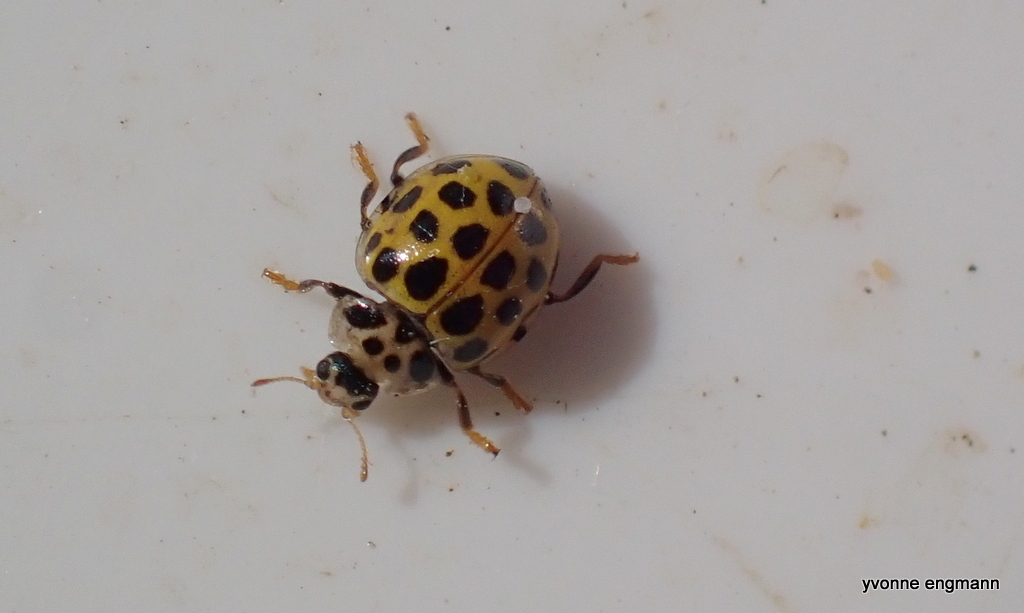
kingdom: Animalia
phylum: Arthropoda
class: Insecta
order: Coleoptera
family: Coccinellidae
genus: Psyllobora
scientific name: Psyllobora vigintiduopunctata
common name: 22-spot ladybird
